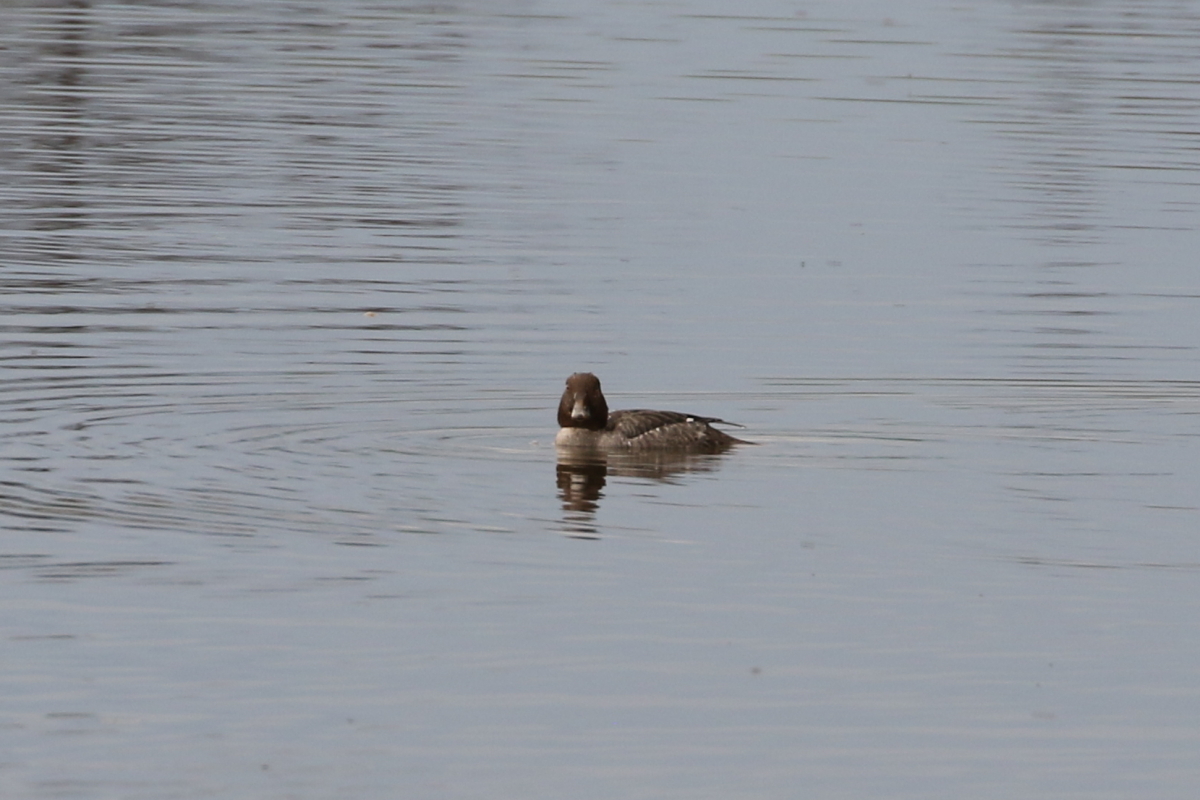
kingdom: Animalia
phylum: Chordata
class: Aves
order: Anseriformes
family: Anatidae
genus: Bucephala
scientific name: Bucephala clangula
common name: Common goldeneye
